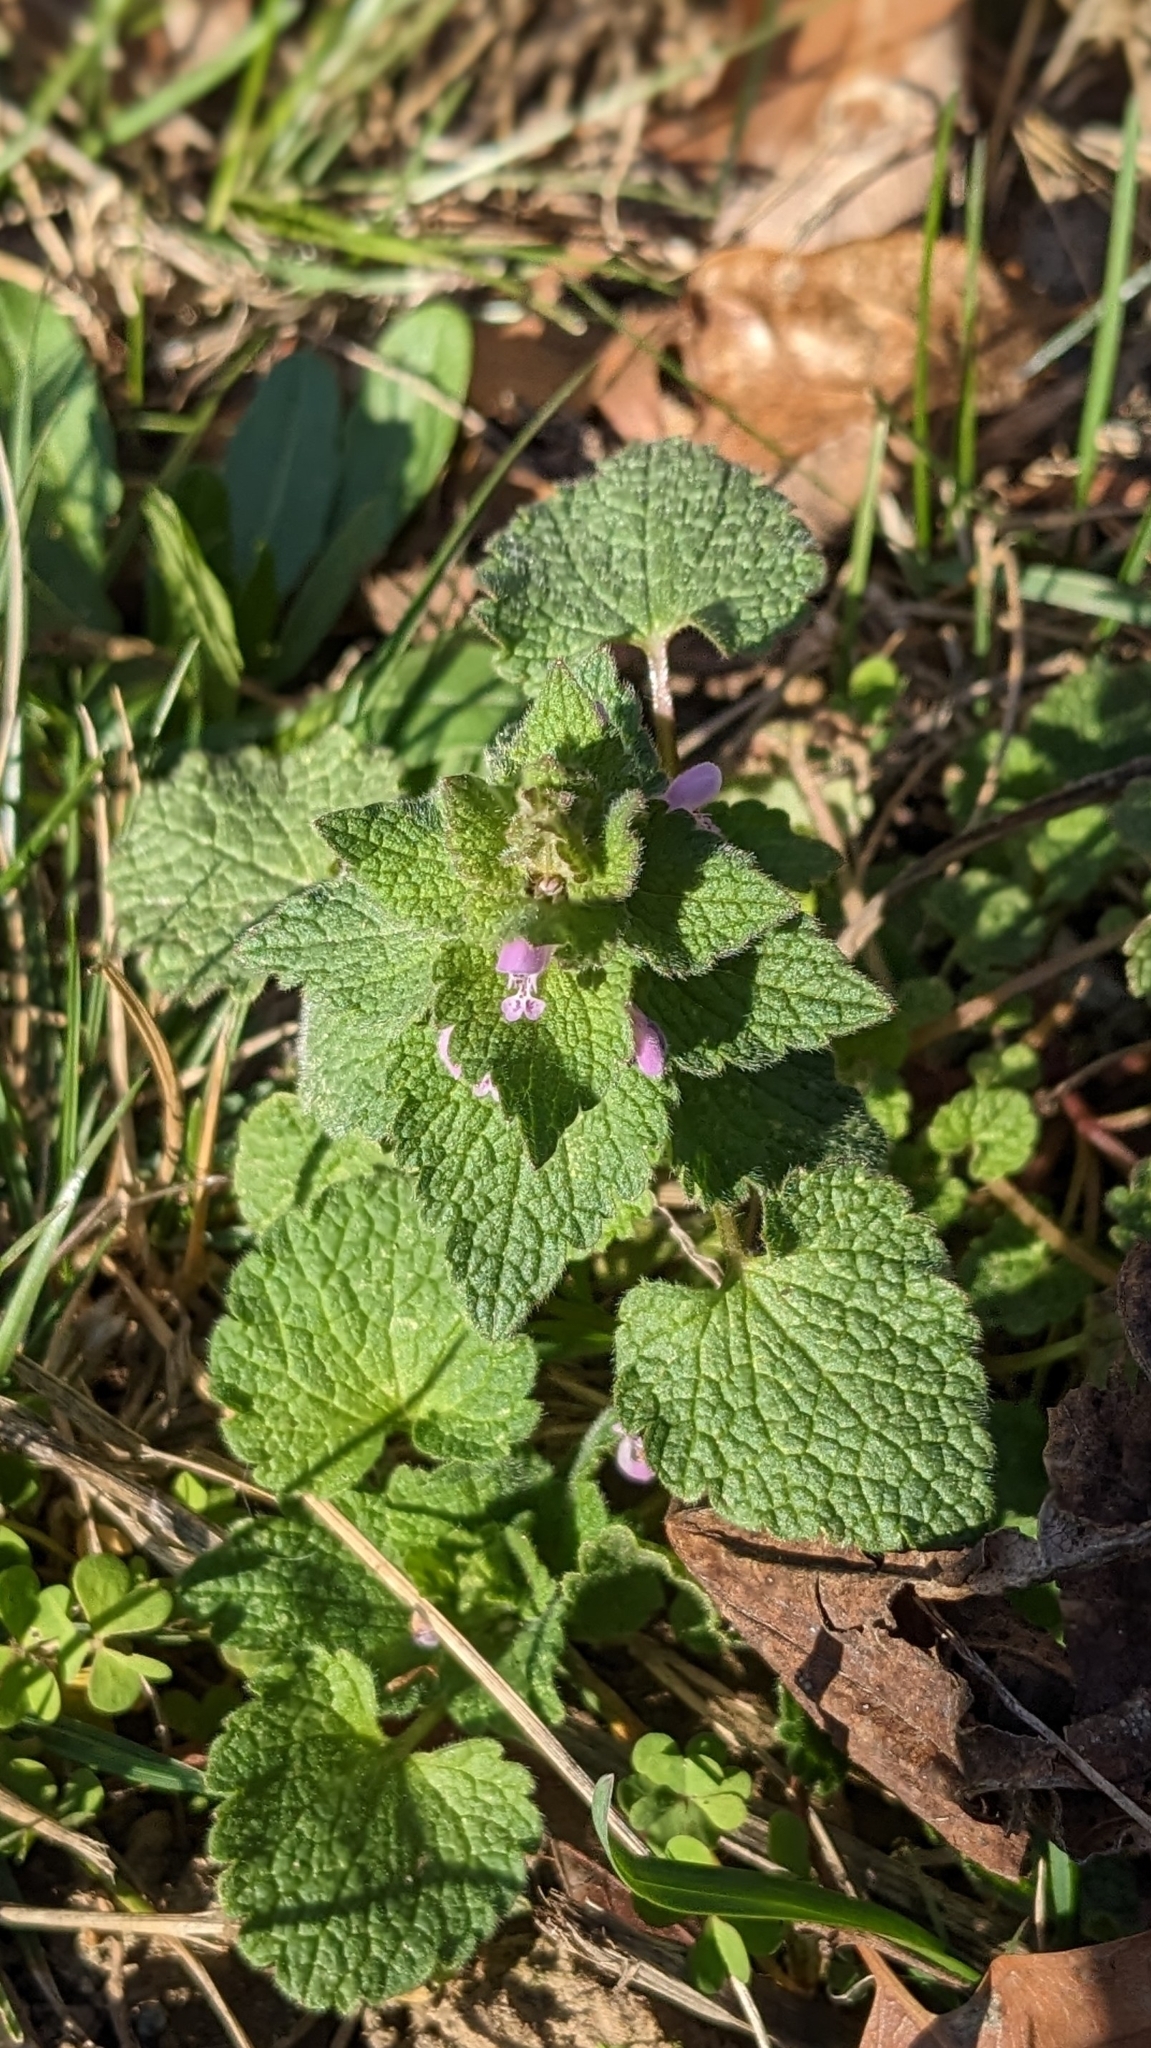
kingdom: Plantae
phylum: Tracheophyta
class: Magnoliopsida
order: Lamiales
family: Lamiaceae
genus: Lamium
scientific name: Lamium purpureum
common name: Red dead-nettle
